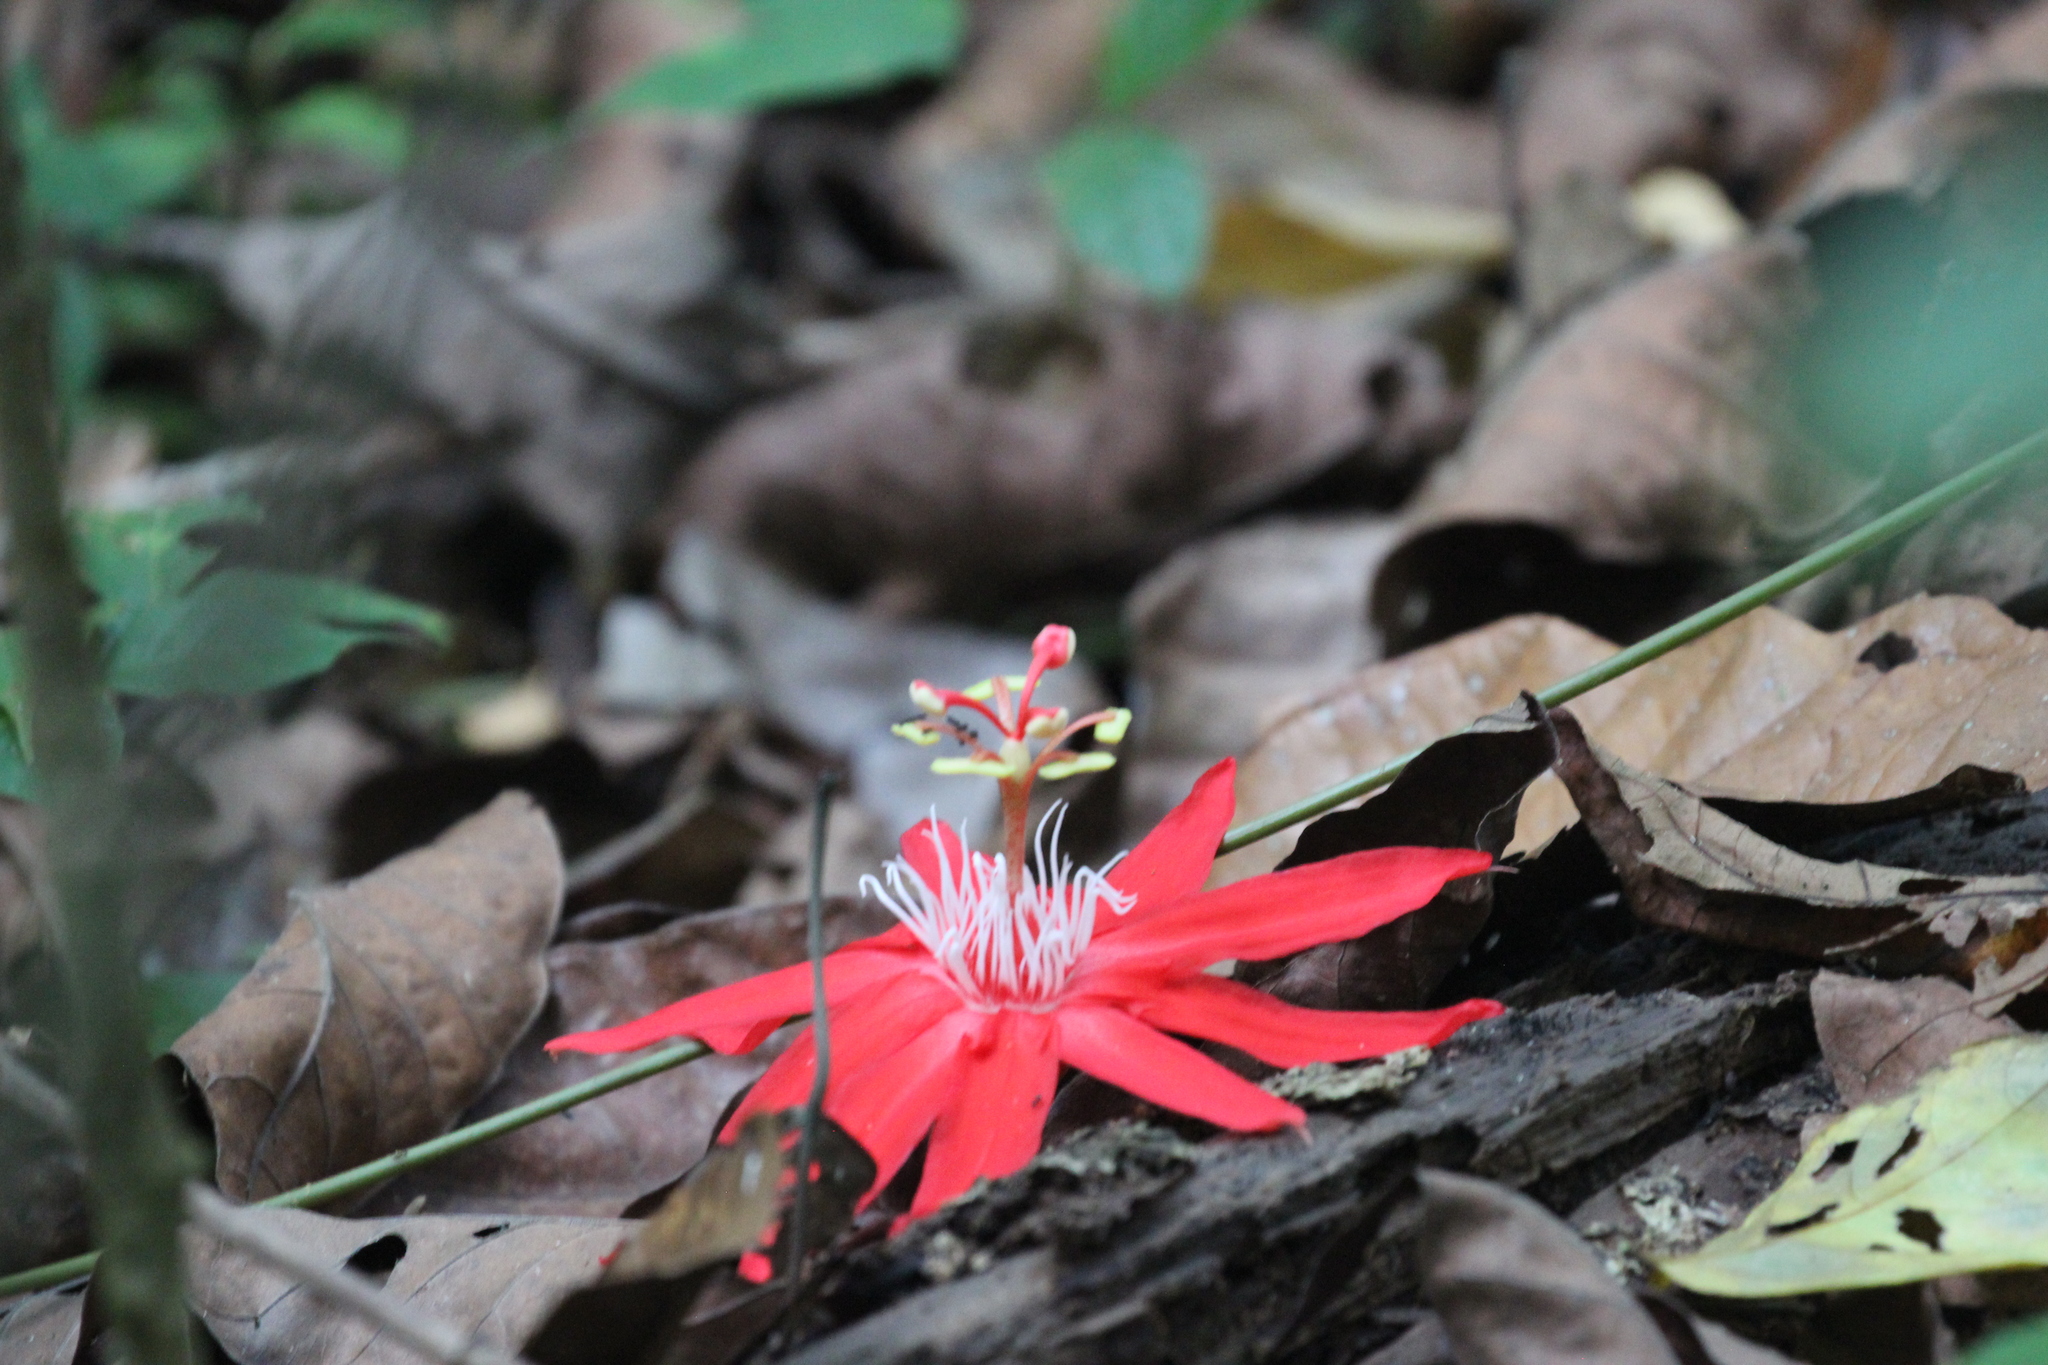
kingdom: Plantae
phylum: Tracheophyta
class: Magnoliopsida
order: Malpighiales
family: Passifloraceae
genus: Passiflora
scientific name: Passiflora vitifolia
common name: Perfumed passionflower
